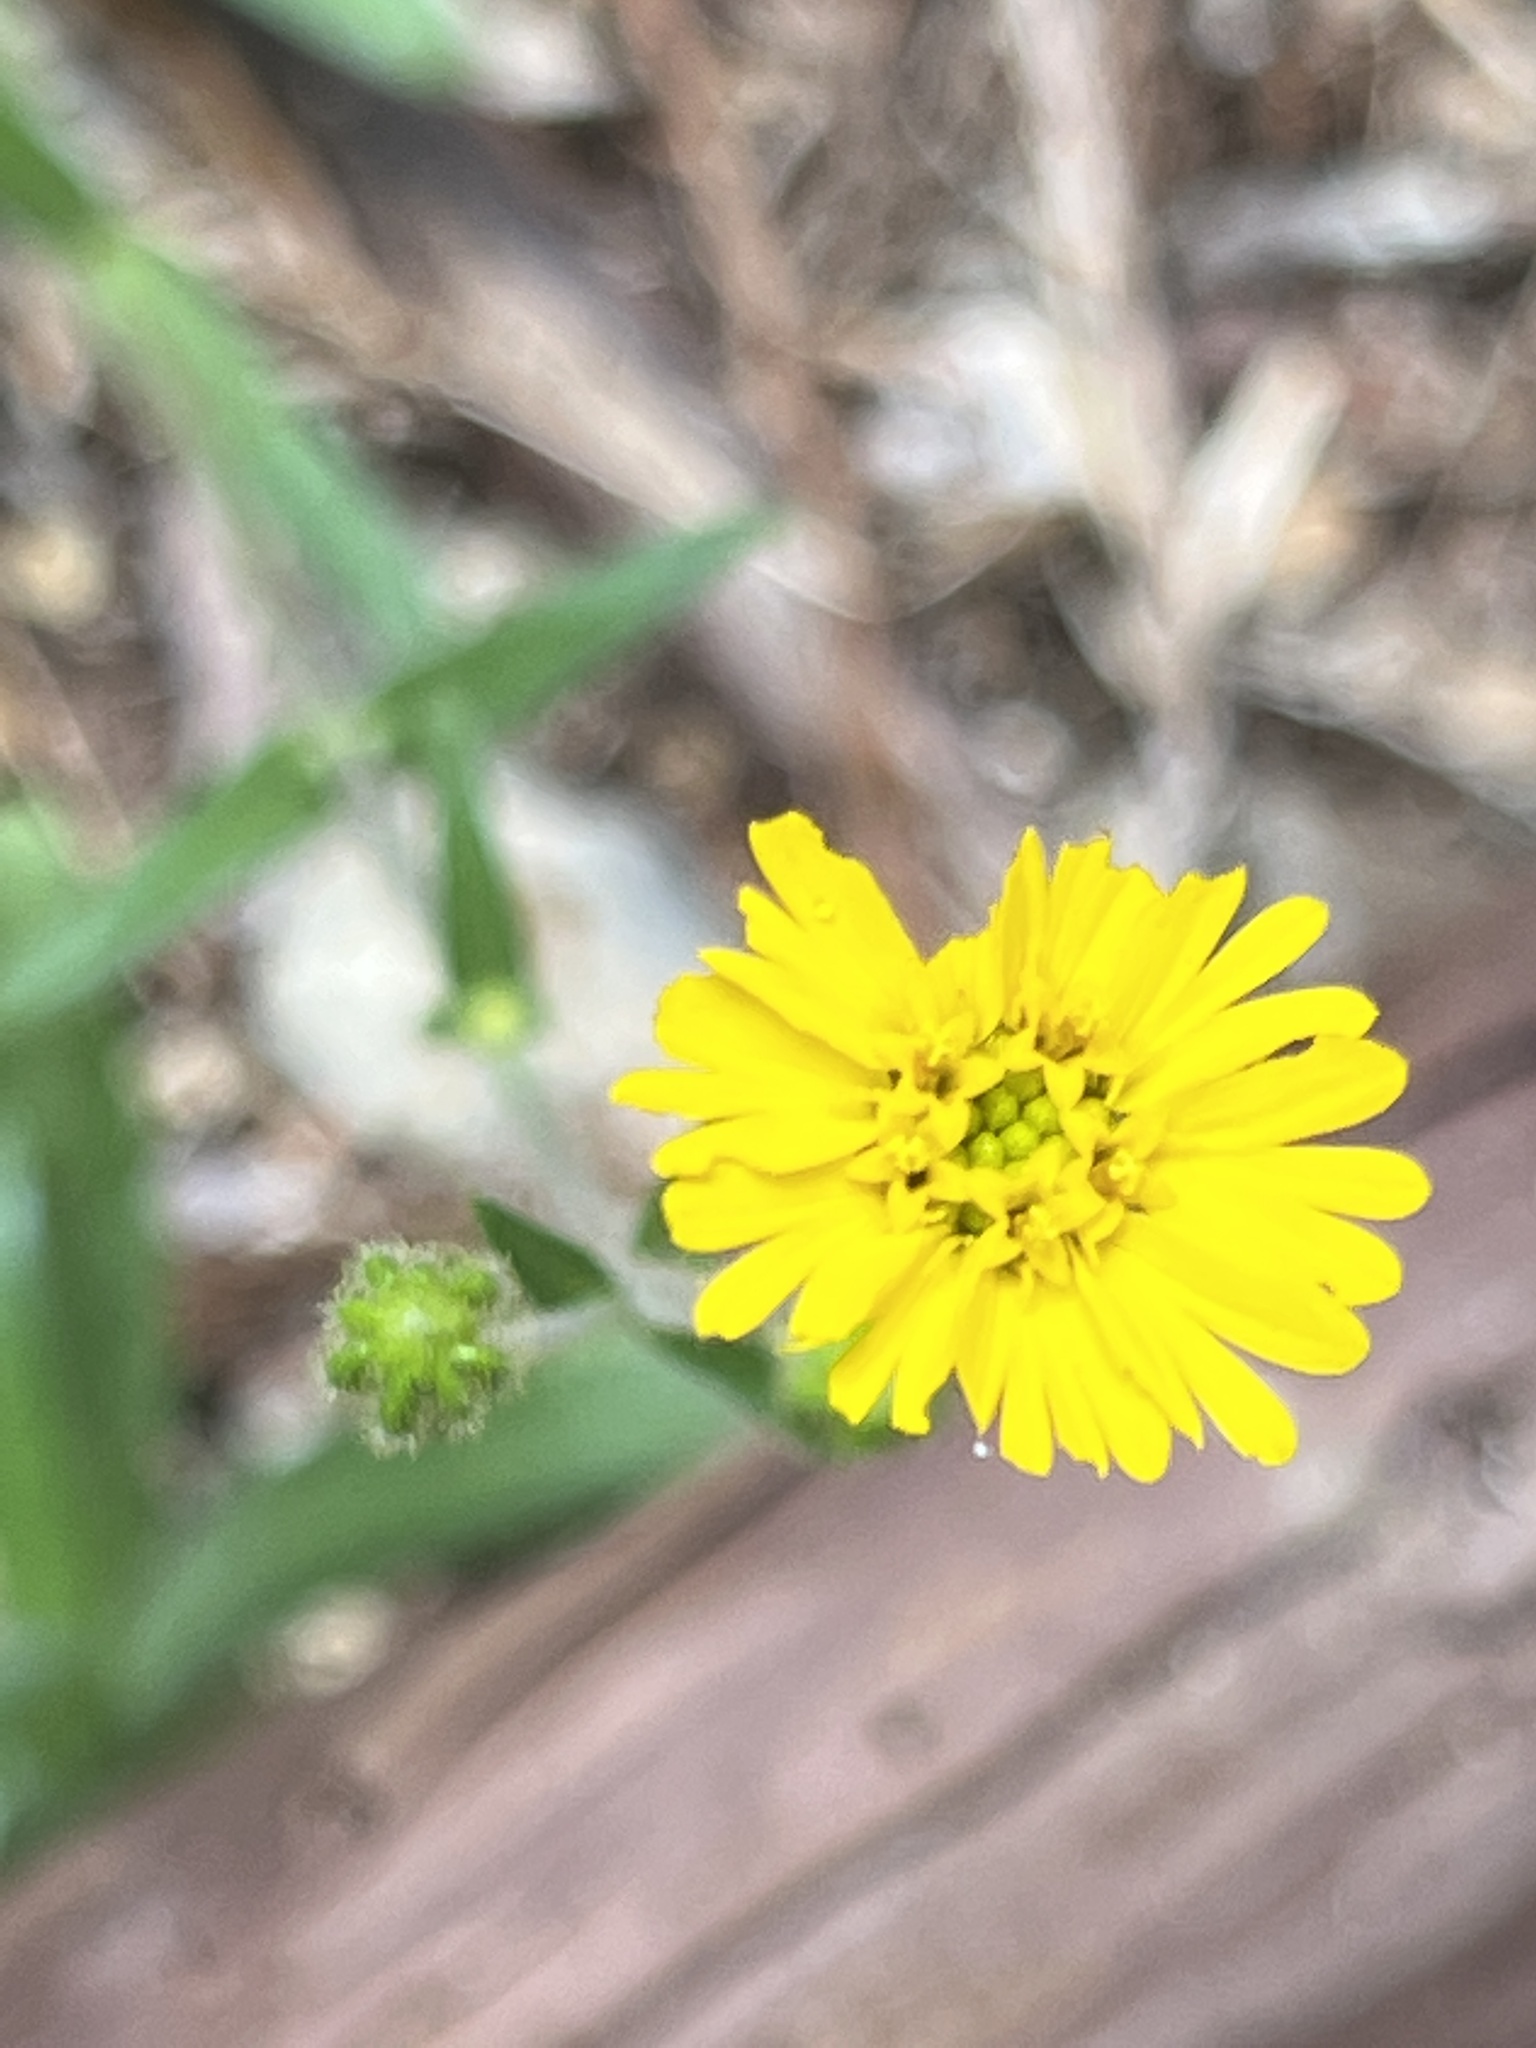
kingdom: Plantae
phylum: Tracheophyta
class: Magnoliopsida
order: Asterales
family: Asteraceae
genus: Anisocarpus
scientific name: Anisocarpus madioides
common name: Woodland madia
